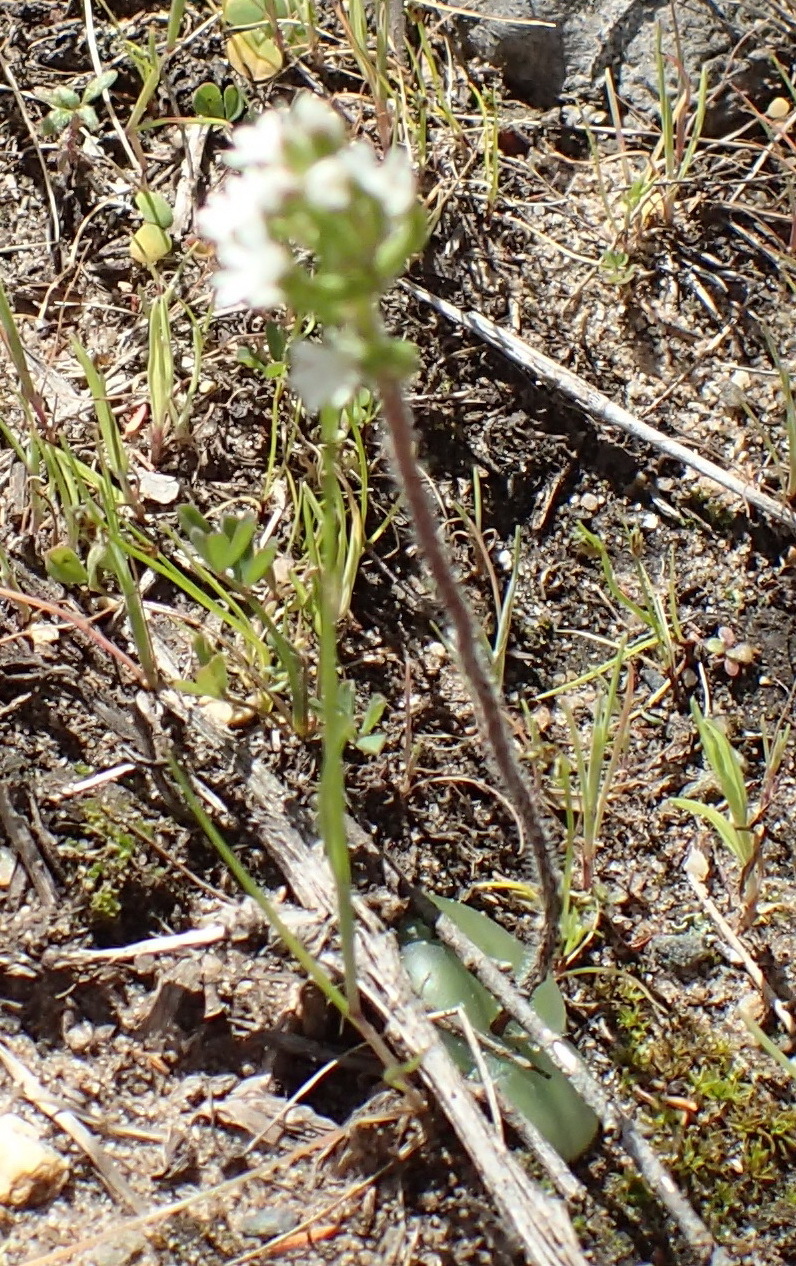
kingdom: Plantae
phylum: Tracheophyta
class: Liliopsida
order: Asparagales
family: Orchidaceae
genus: Holothrix
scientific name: Holothrix mundii
